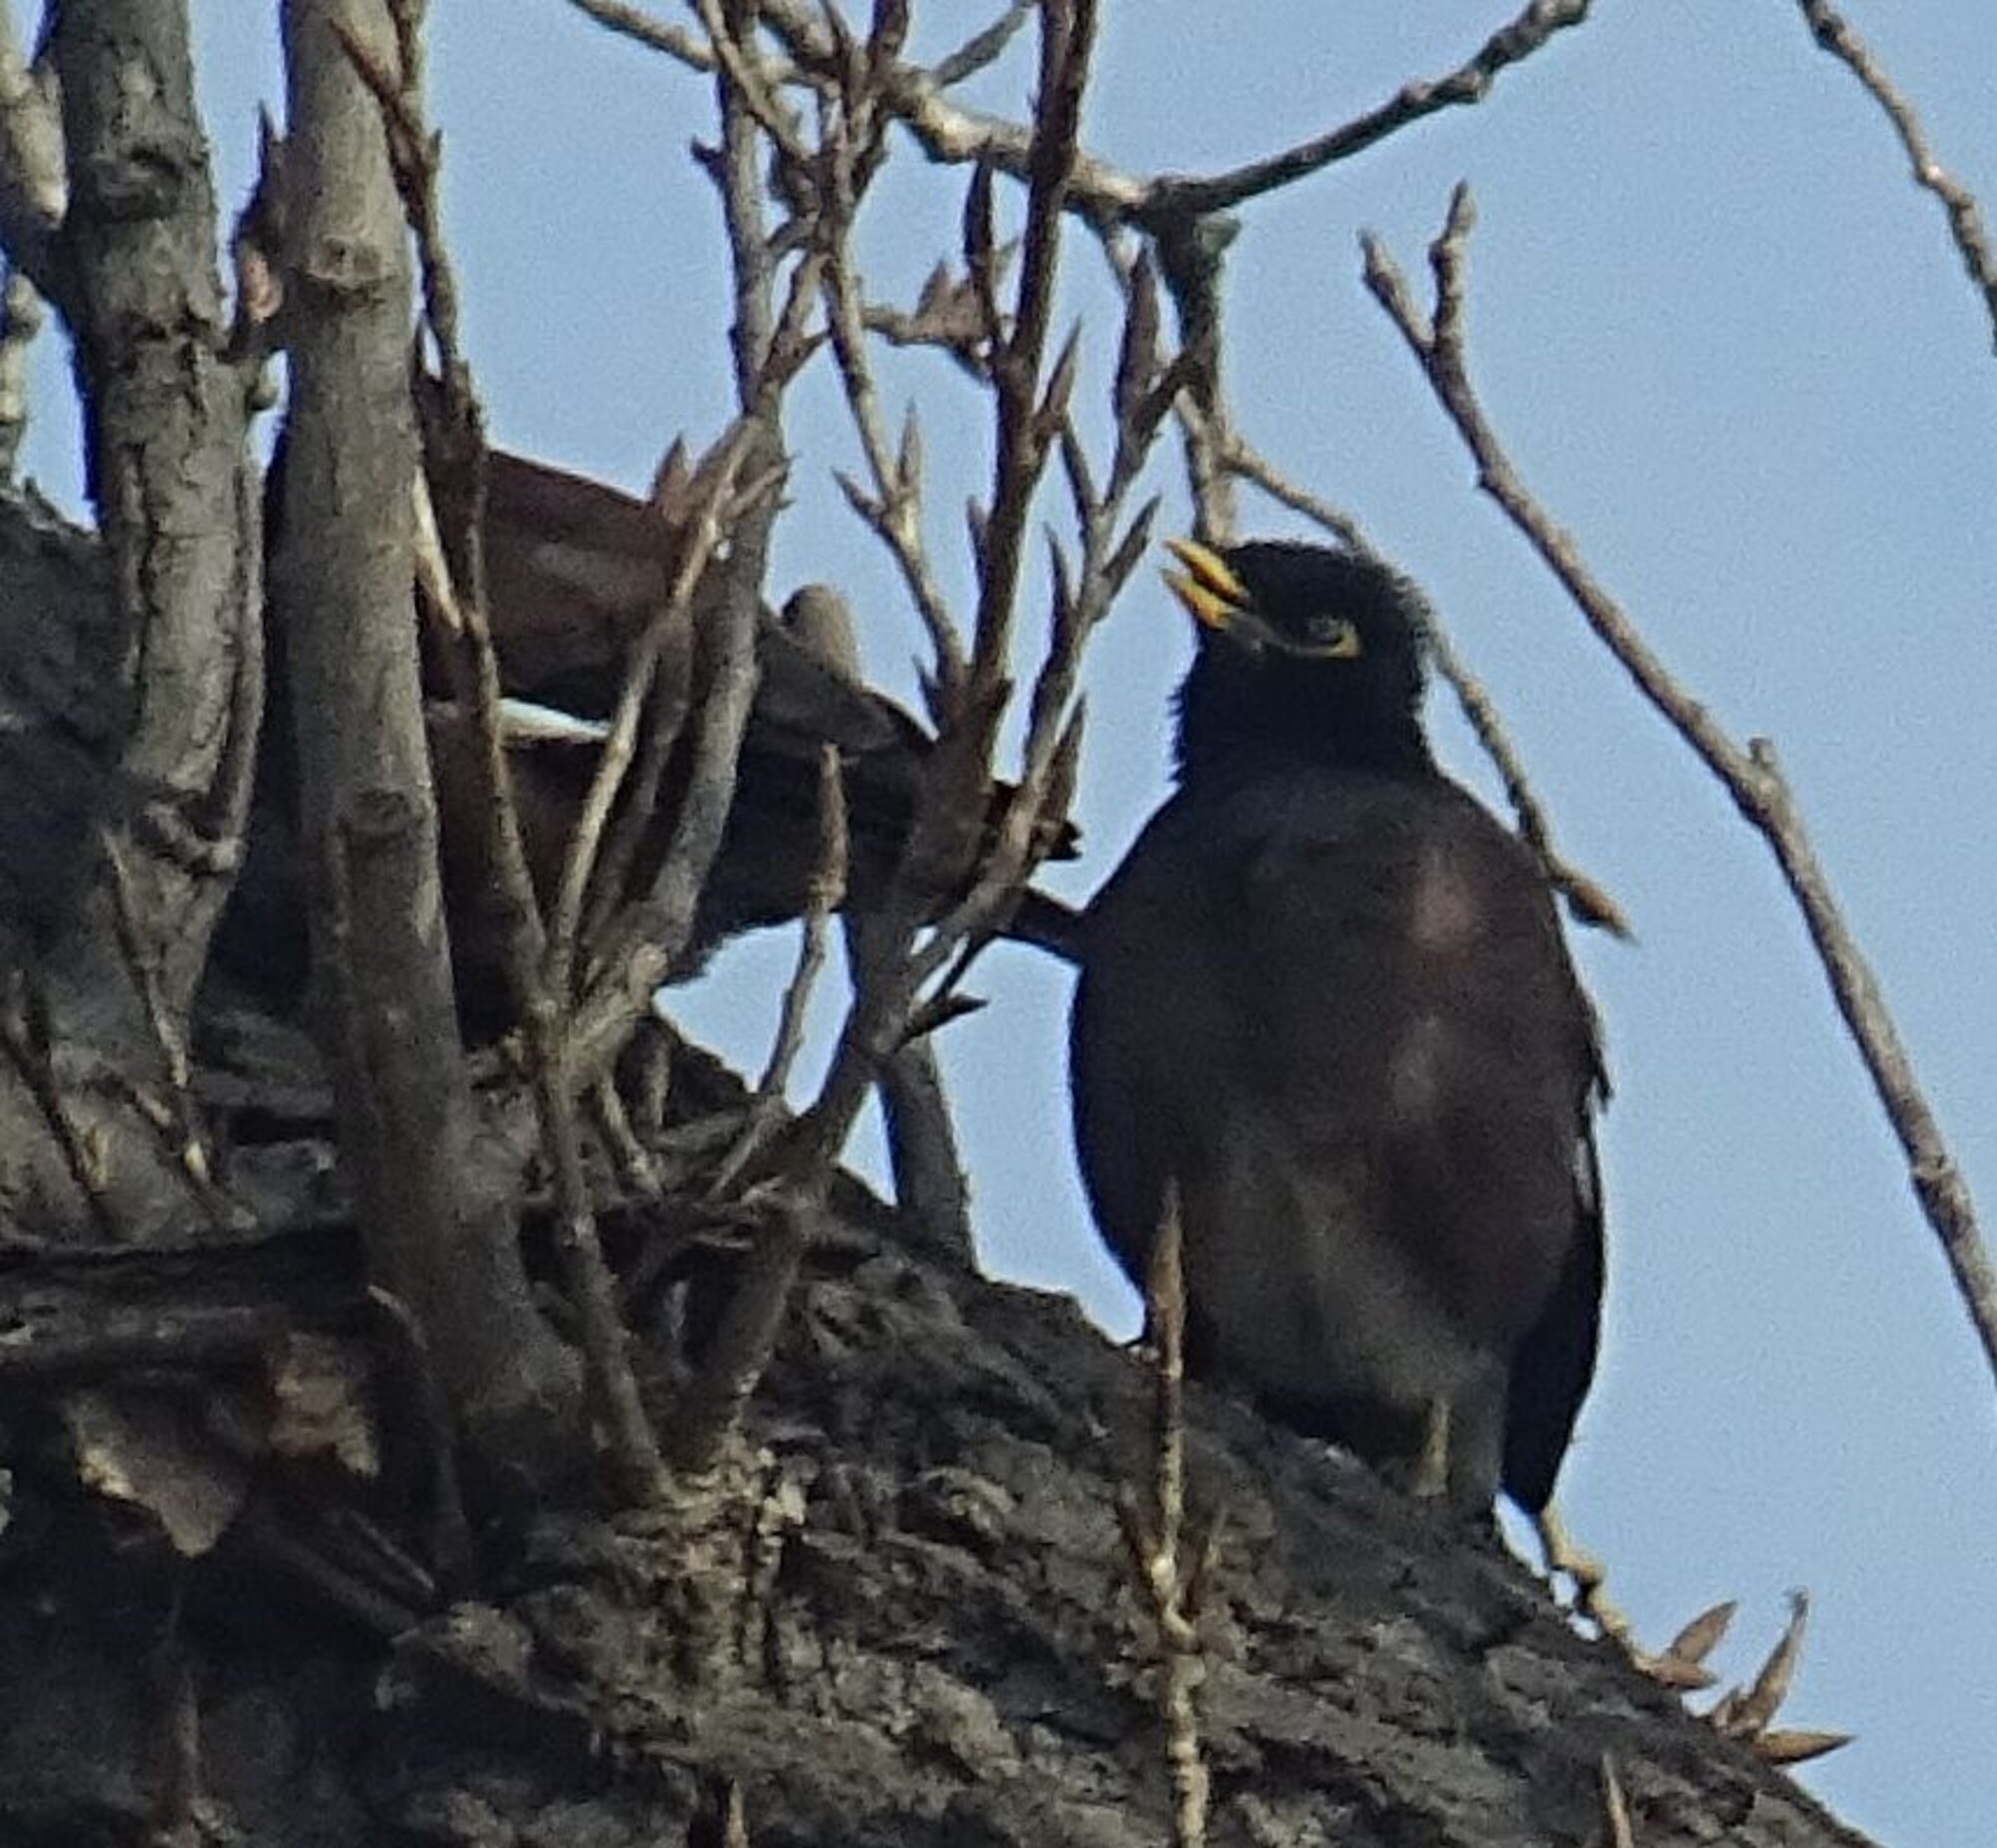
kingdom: Animalia
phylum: Chordata
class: Aves
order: Passeriformes
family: Sturnidae
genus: Acridotheres
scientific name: Acridotheres tristis
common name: Common myna
